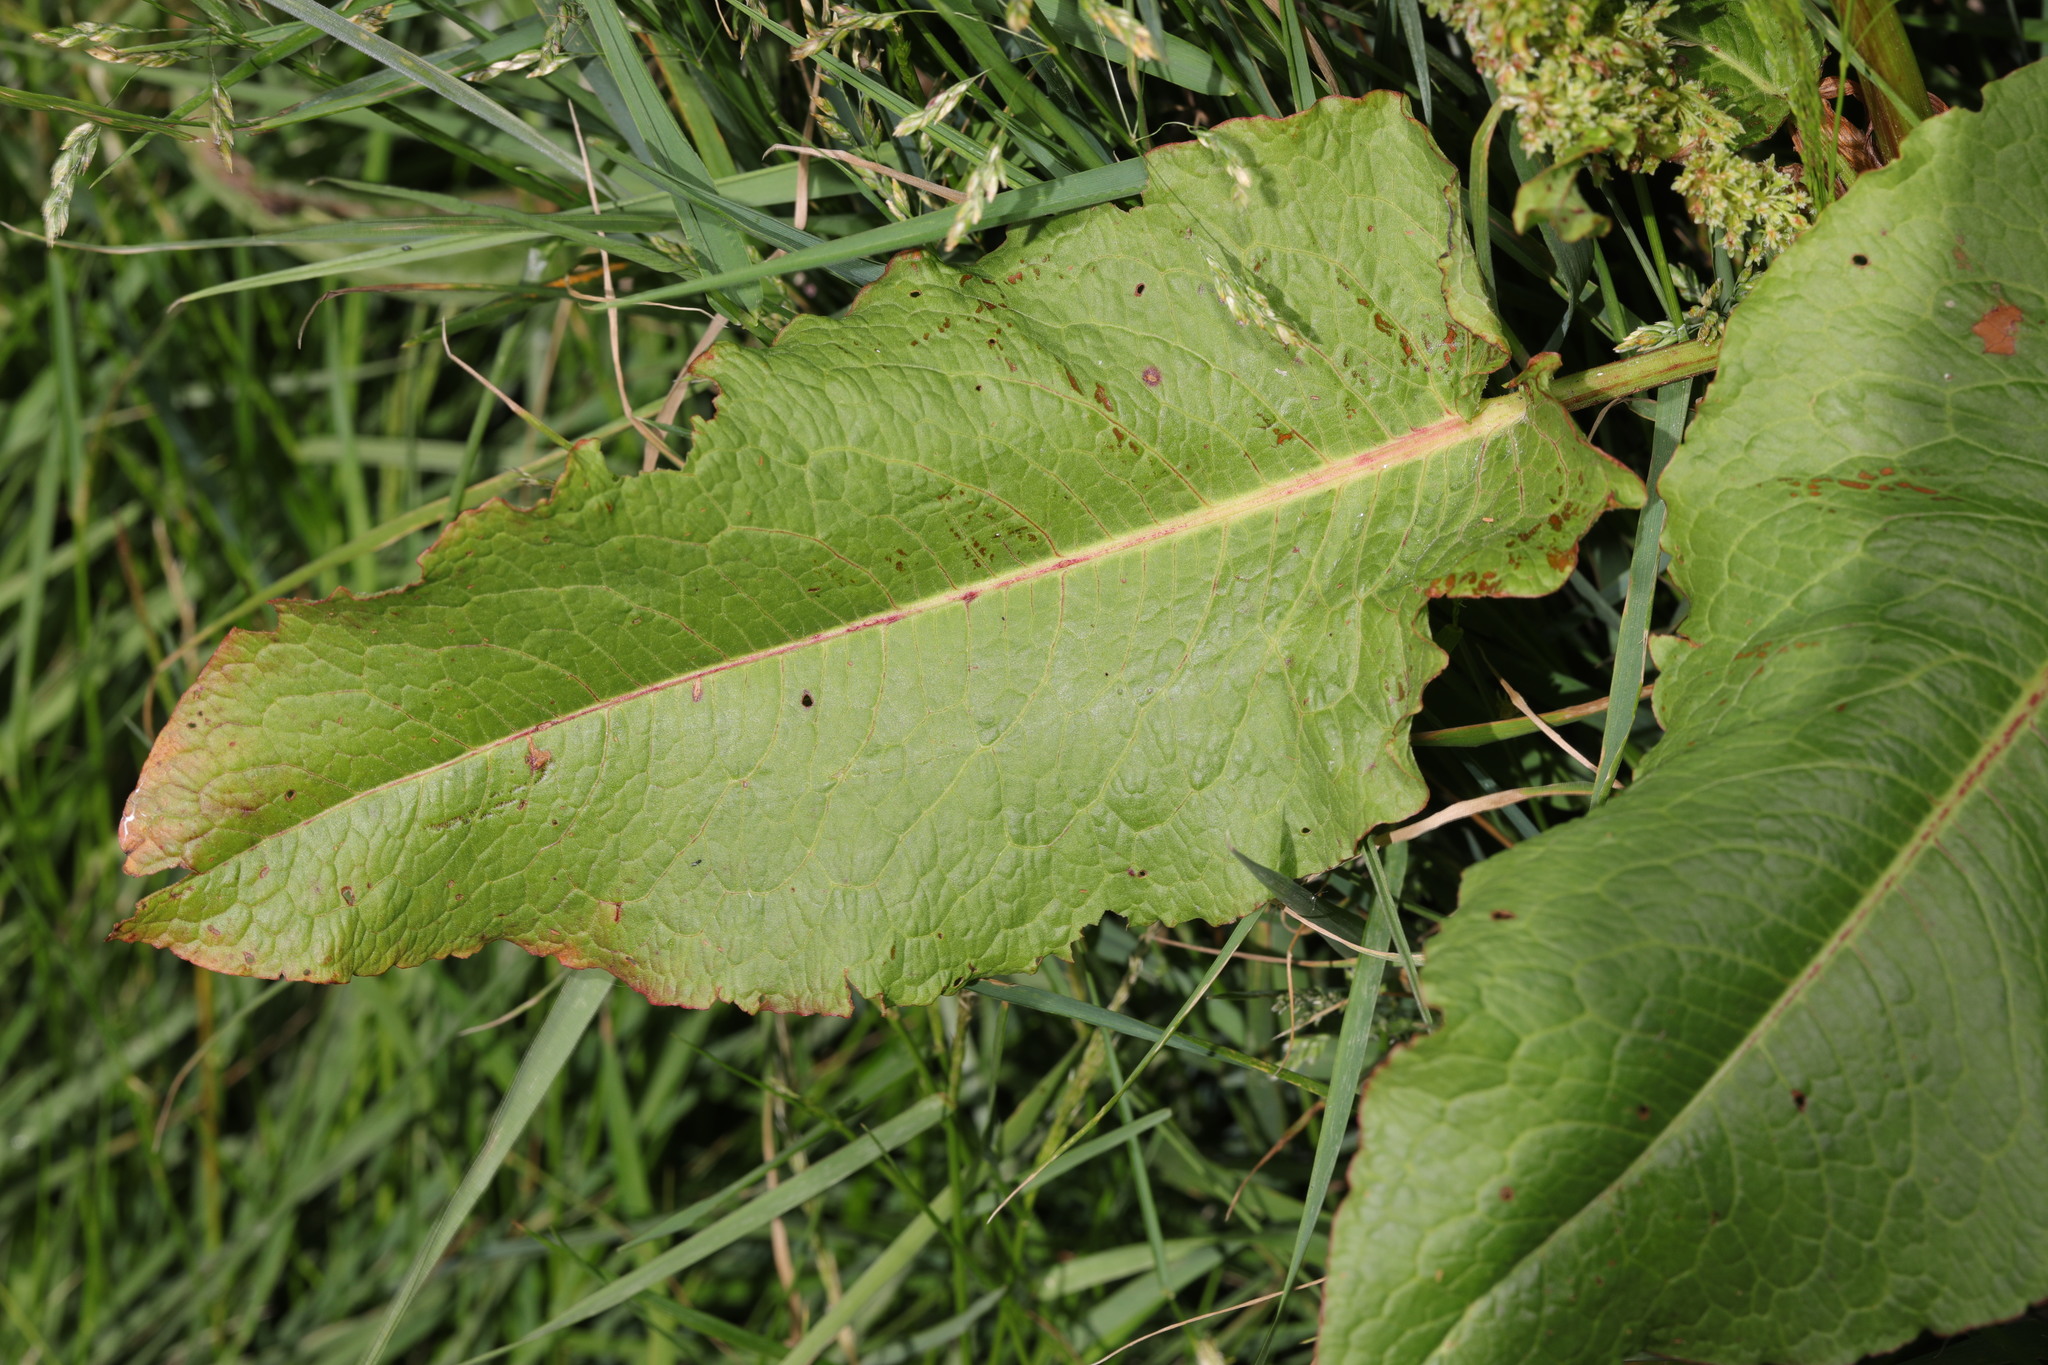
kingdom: Plantae
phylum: Tracheophyta
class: Magnoliopsida
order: Caryophyllales
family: Polygonaceae
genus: Rumex
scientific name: Rumex obtusifolius
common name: Bitter dock
